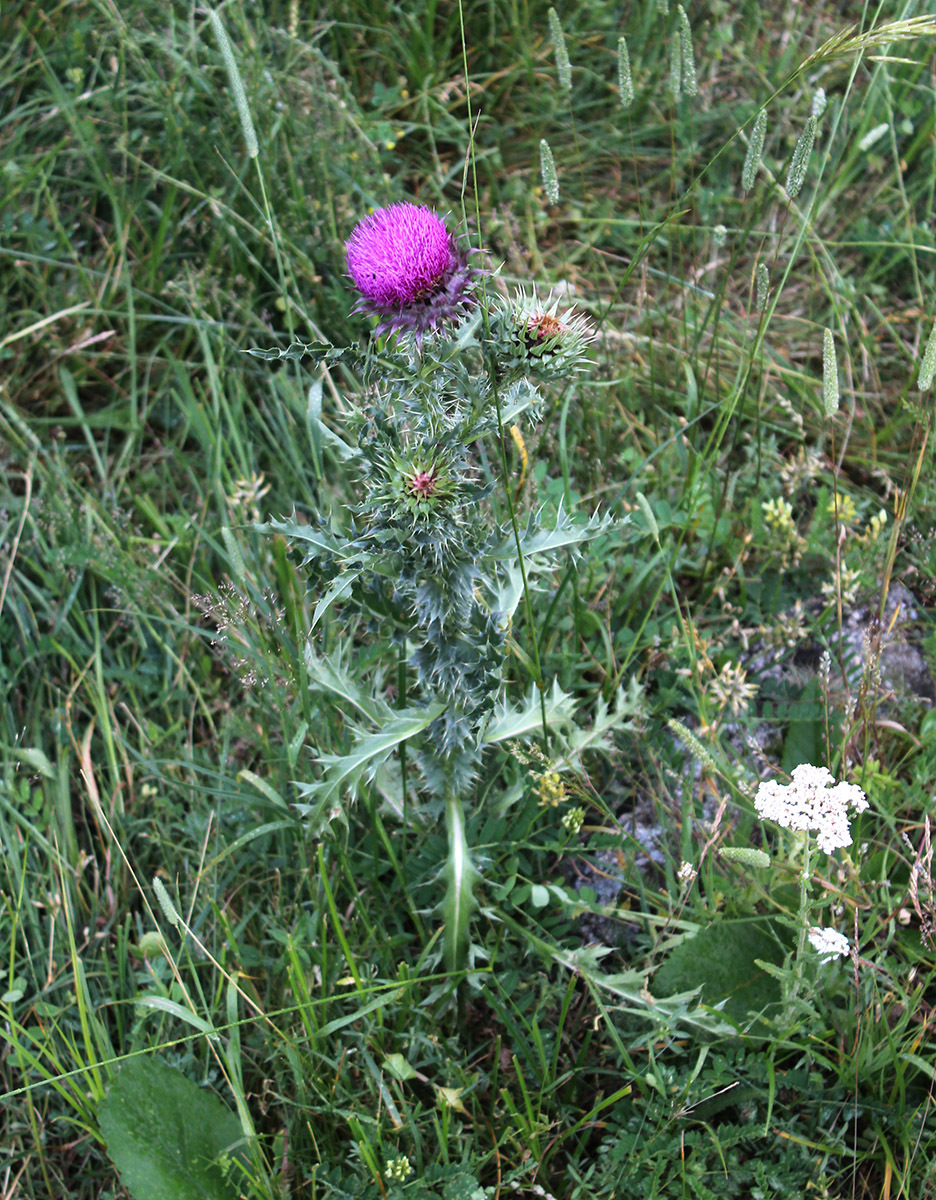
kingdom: Plantae
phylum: Tracheophyta
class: Magnoliopsida
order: Asterales
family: Asteraceae
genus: Carduus
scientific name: Carduus nutans
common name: Musk thistle
